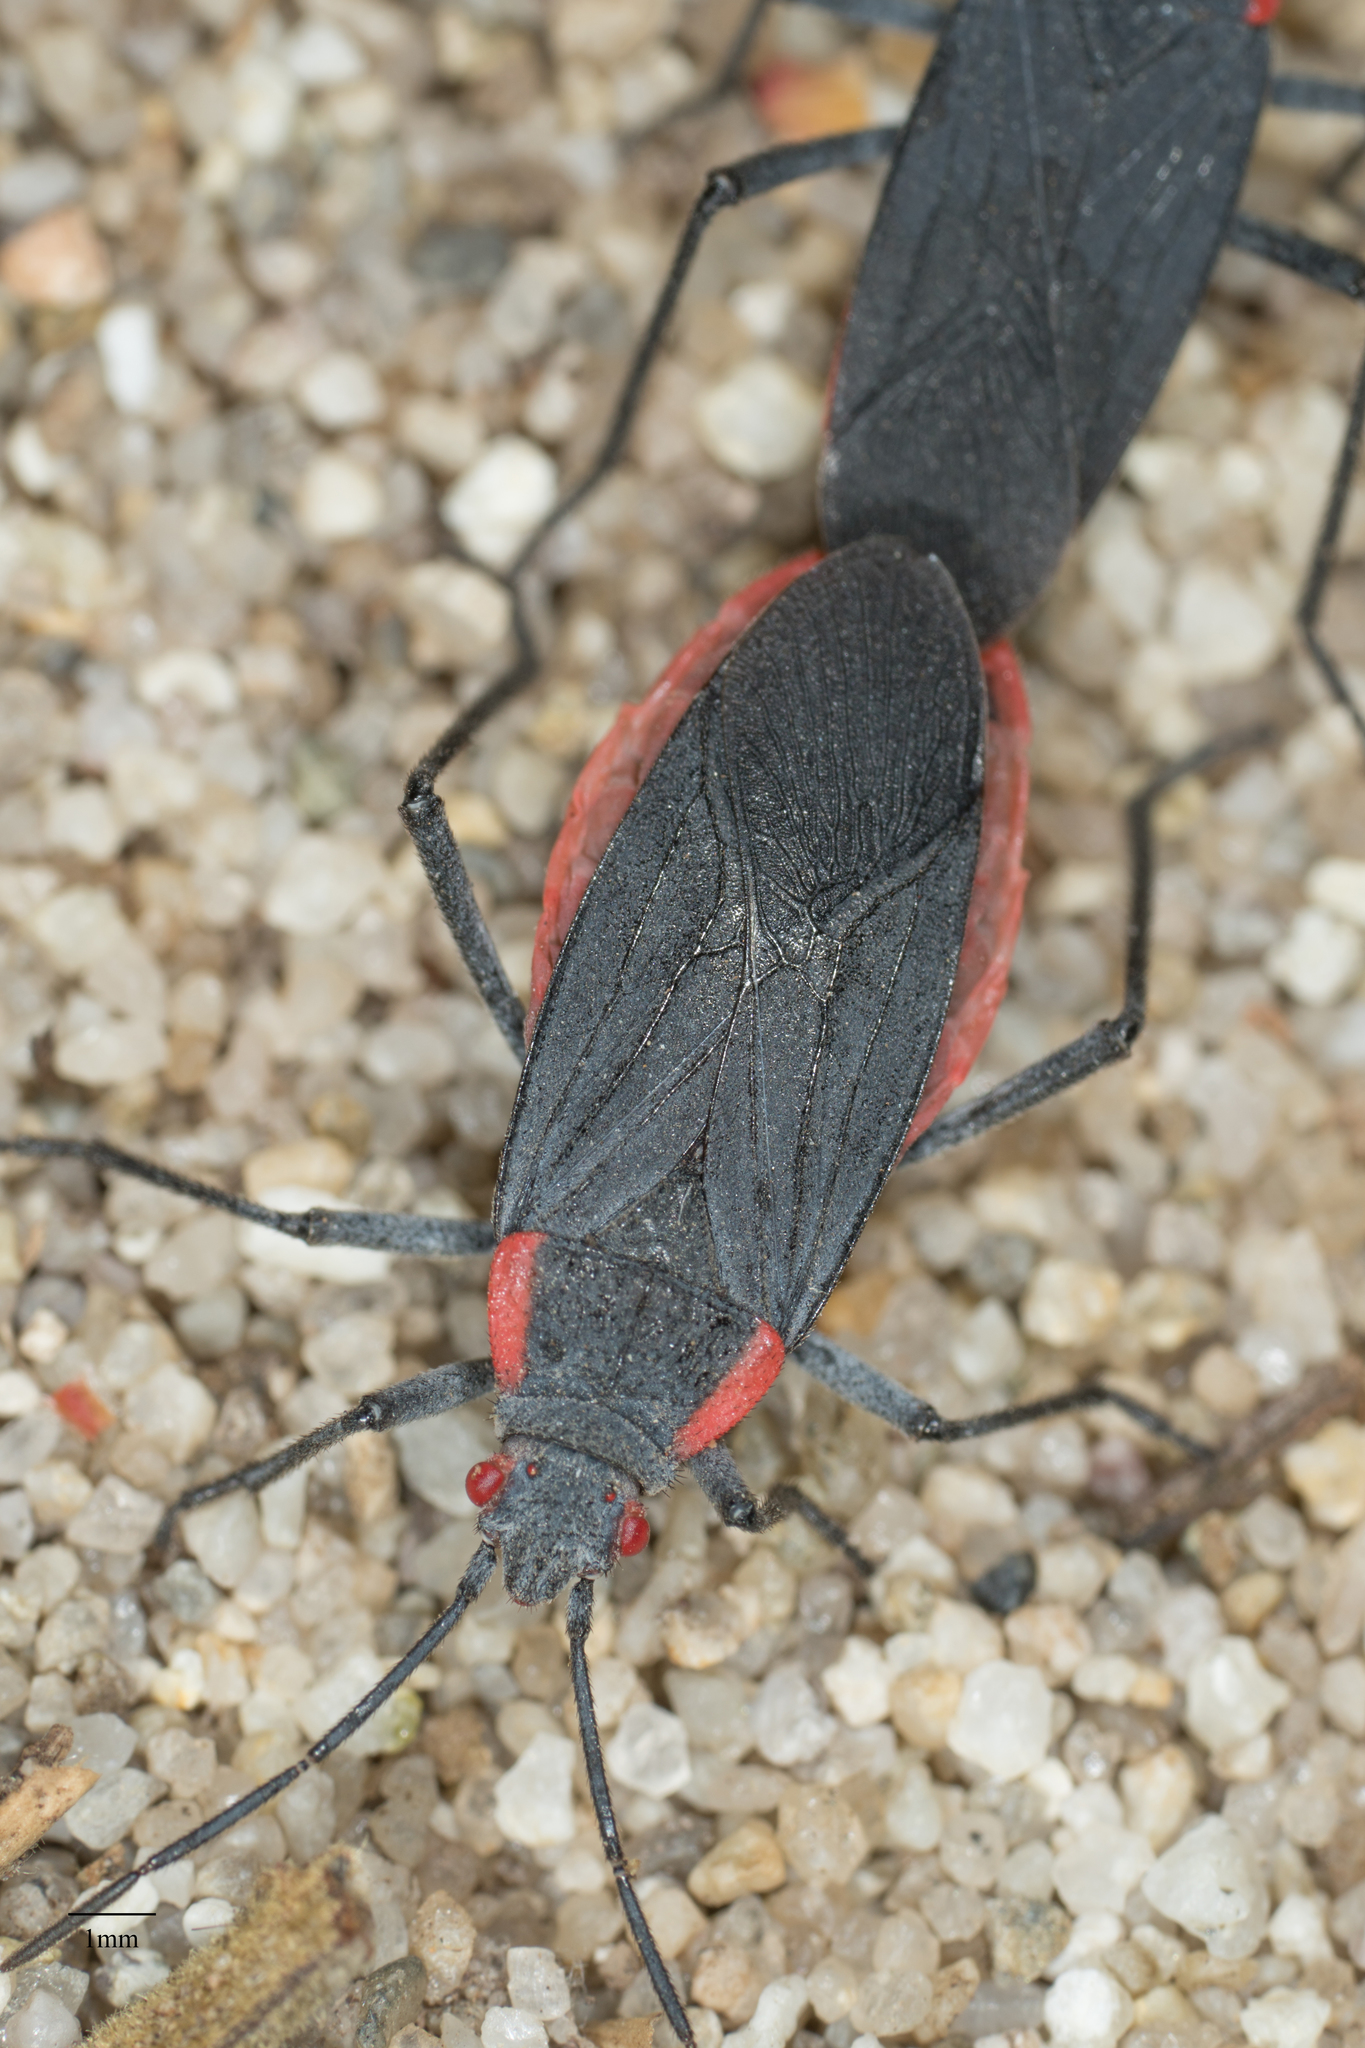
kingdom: Animalia
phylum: Arthropoda
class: Insecta
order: Hemiptera
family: Rhopalidae
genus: Jadera
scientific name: Jadera haematoloma
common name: Red-shouldered bug
